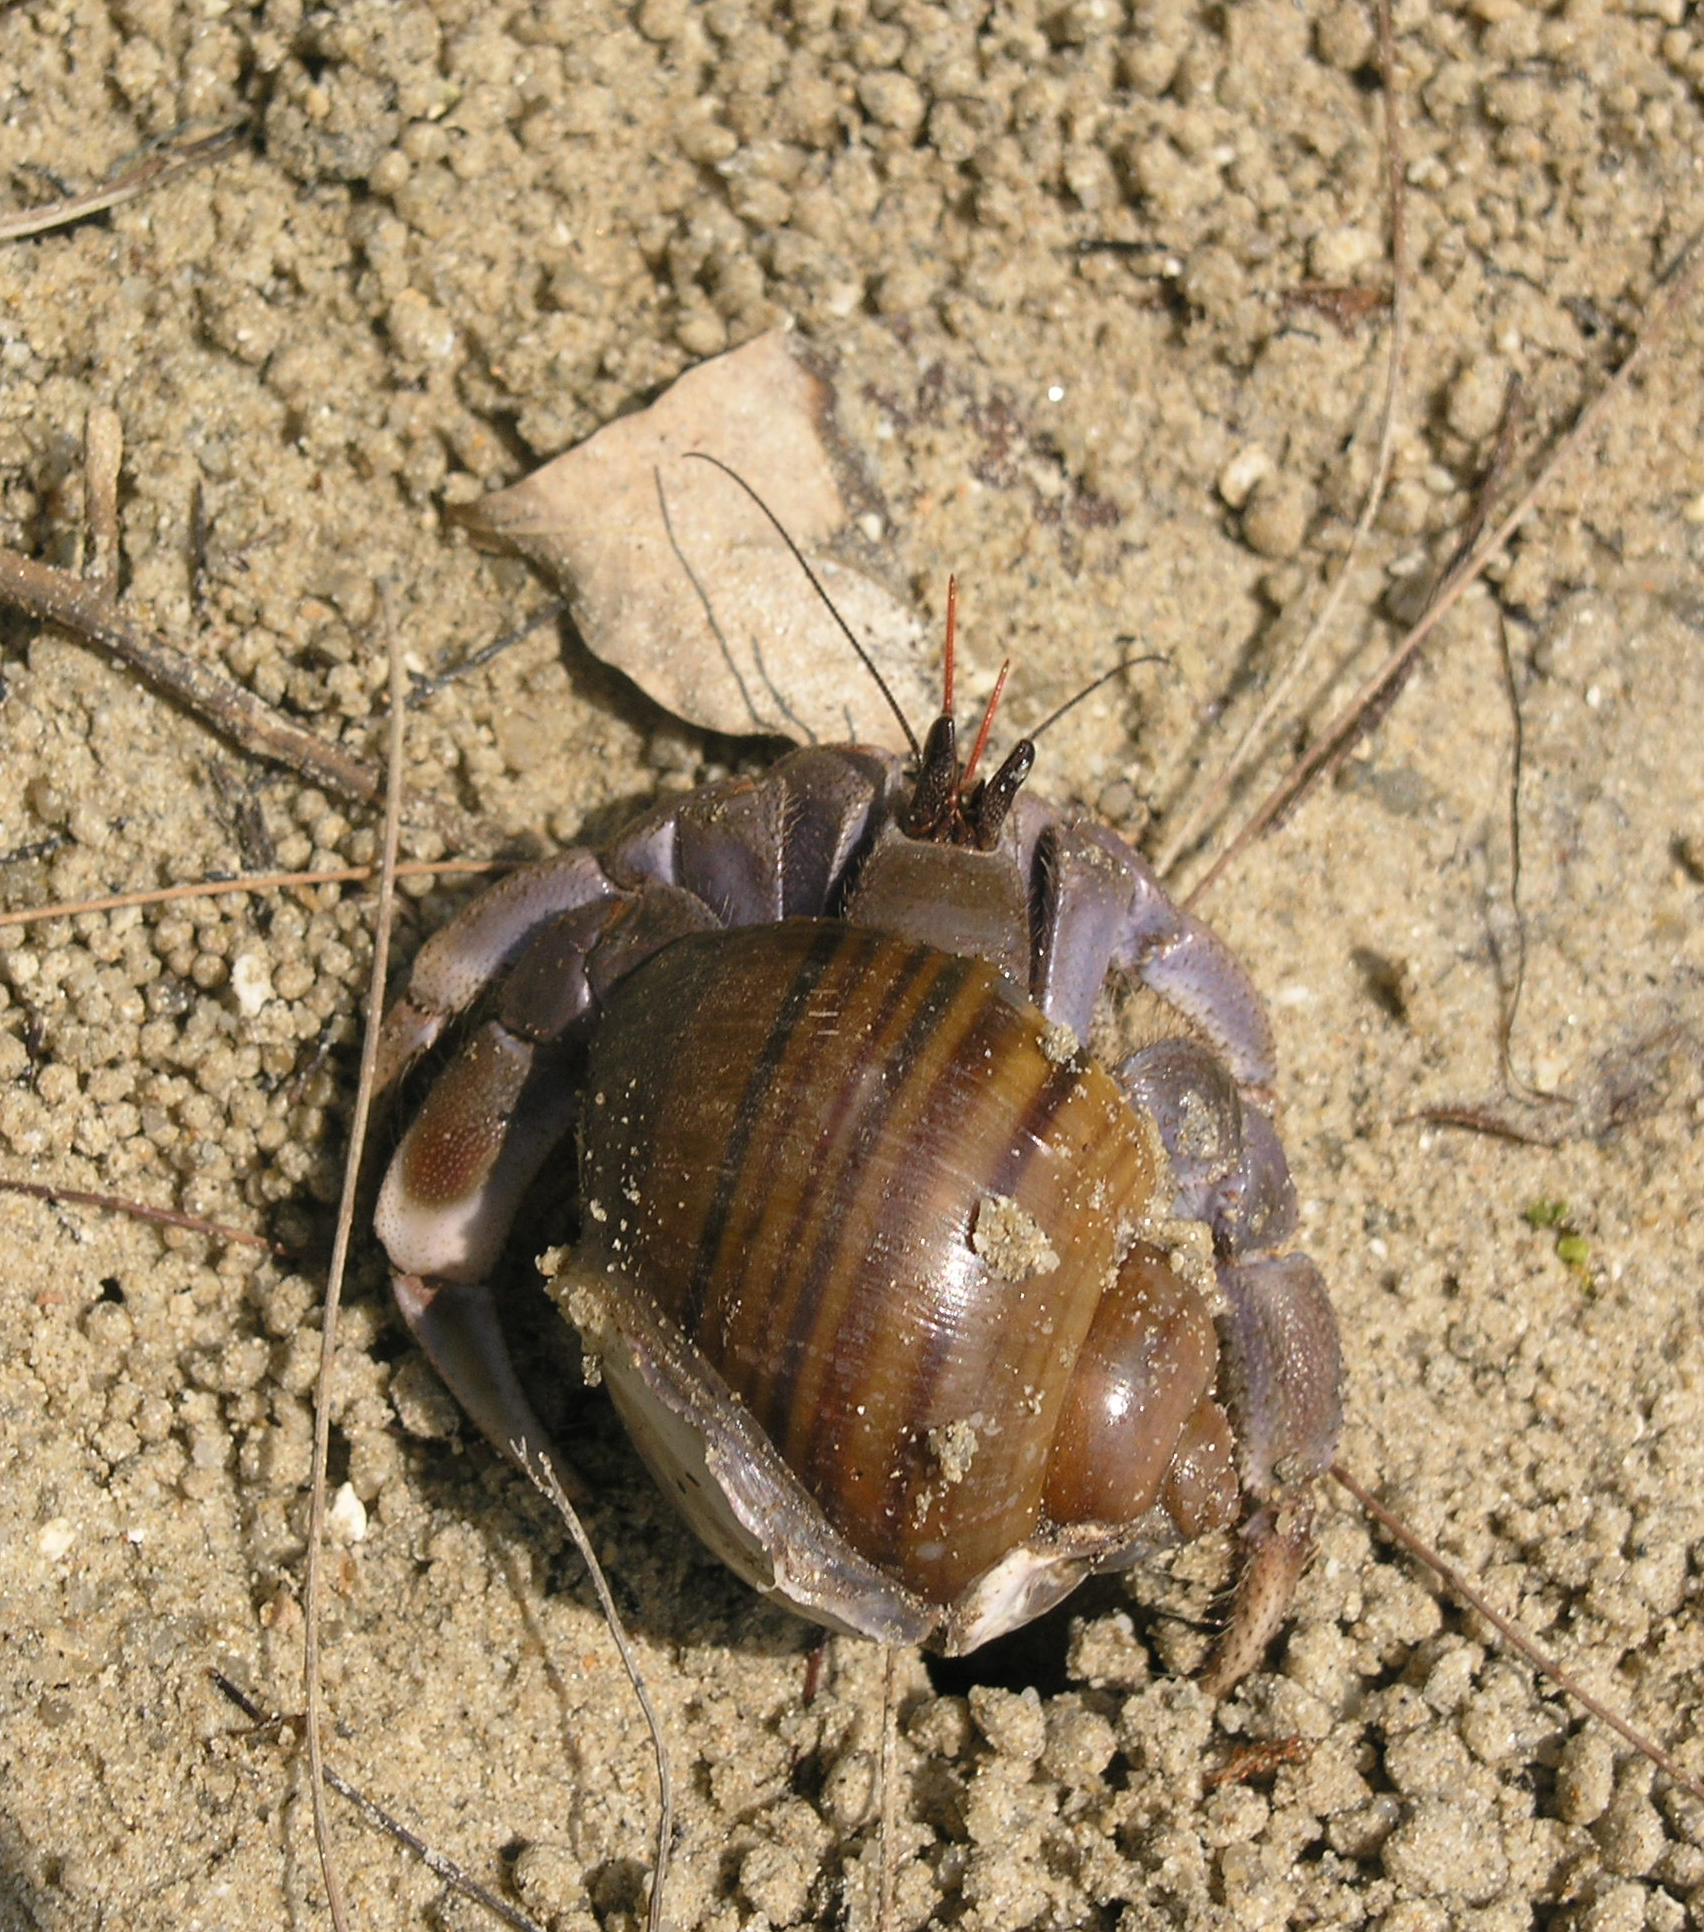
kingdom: Animalia
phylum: Arthropoda
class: Malacostraca
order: Decapoda
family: Coenobitidae
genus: Coenobita
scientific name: Coenobita violascens
